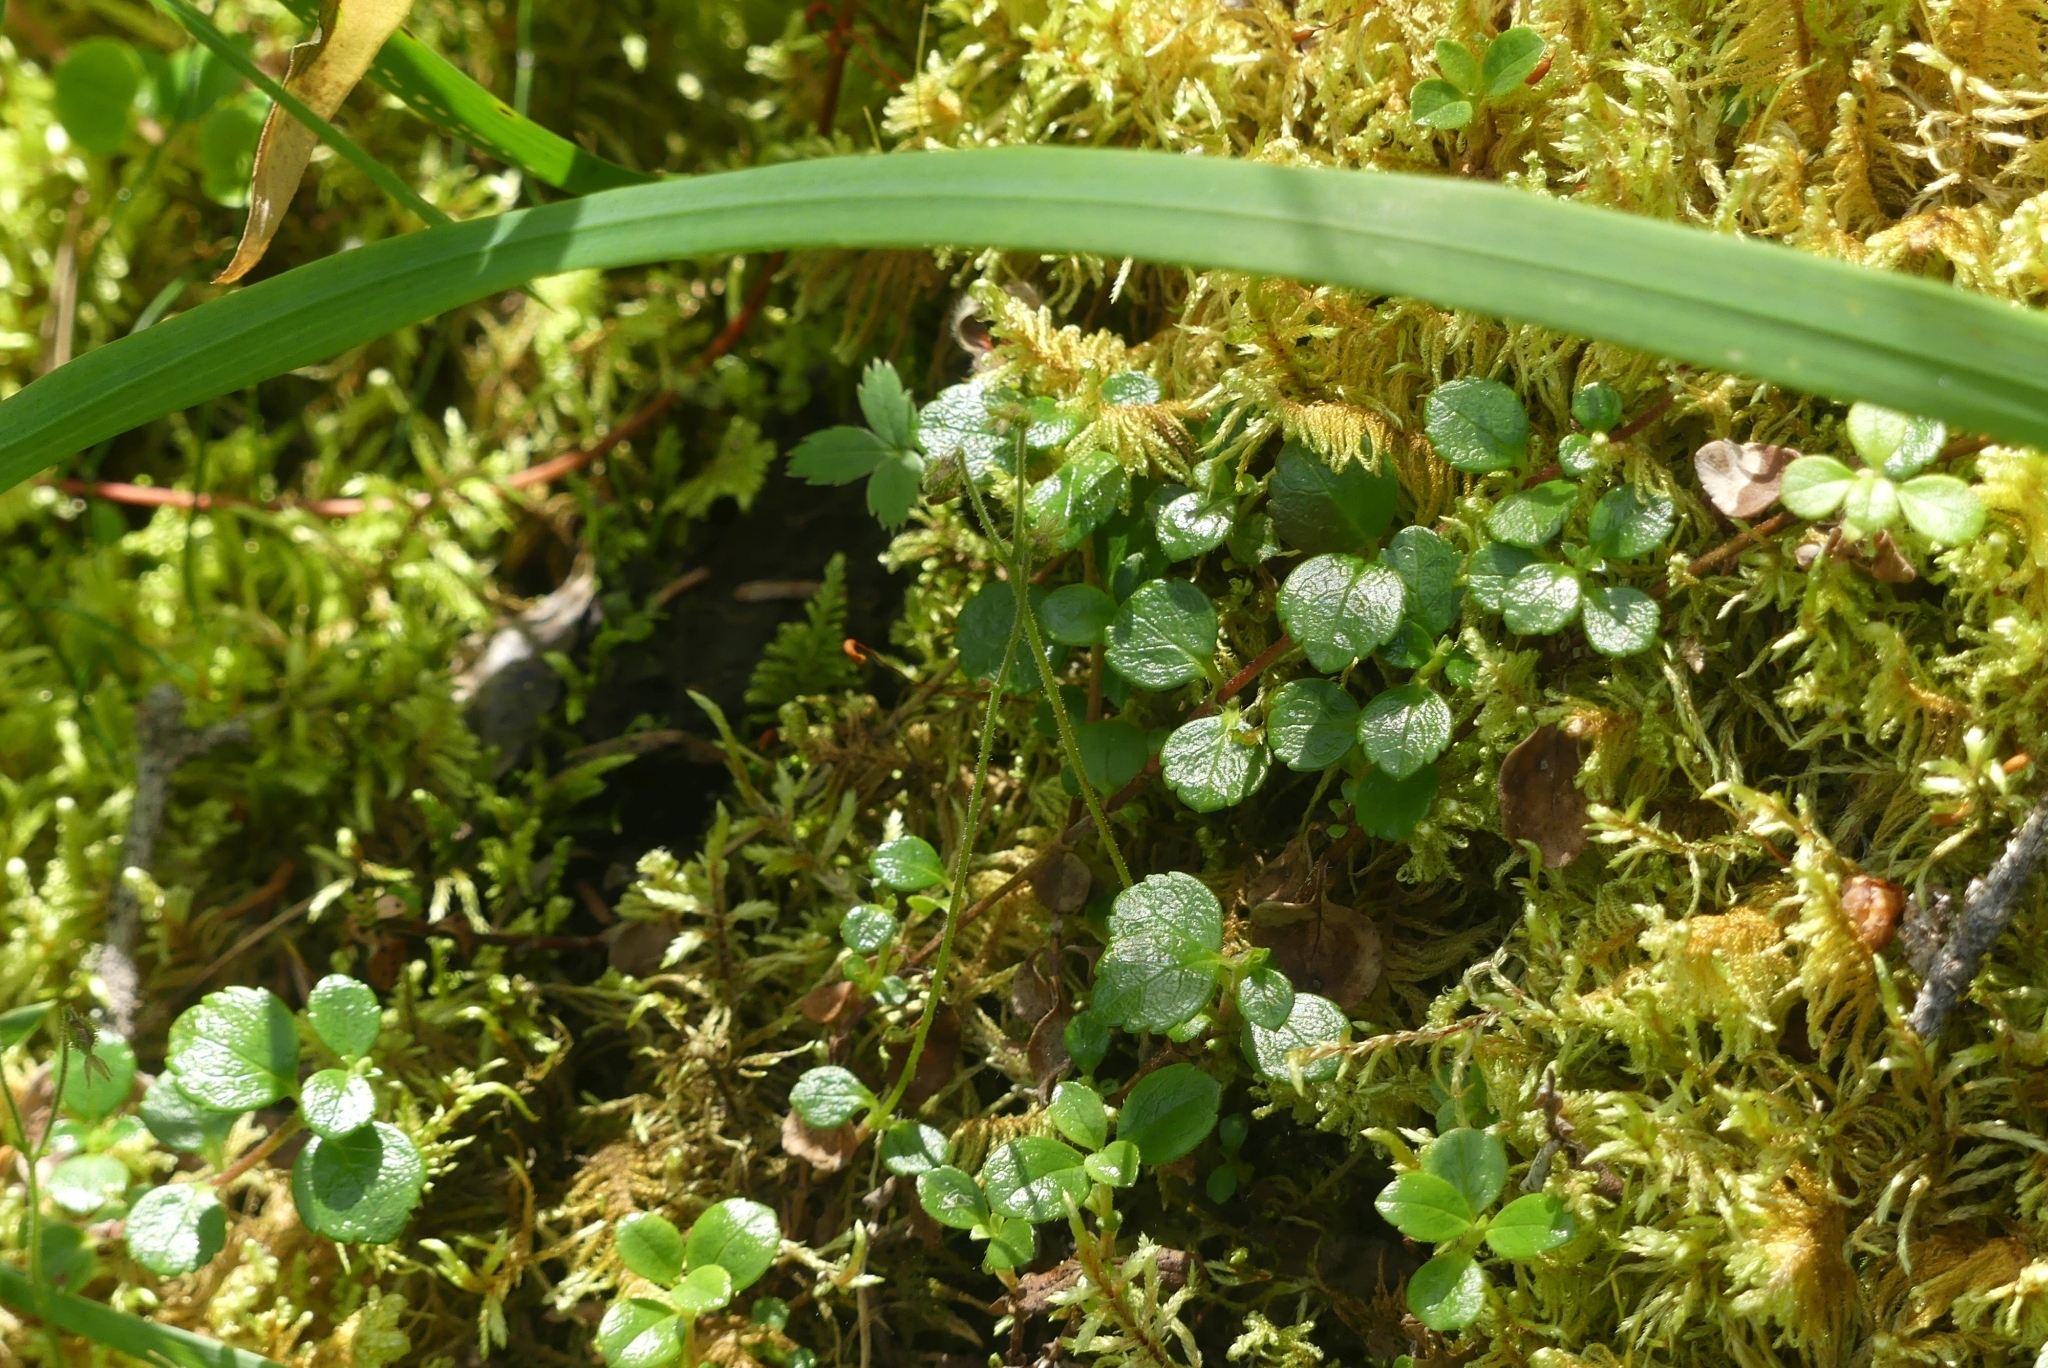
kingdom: Plantae
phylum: Tracheophyta
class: Magnoliopsida
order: Dipsacales
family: Caprifoliaceae
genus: Linnaea
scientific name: Linnaea borealis
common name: Twinflower
